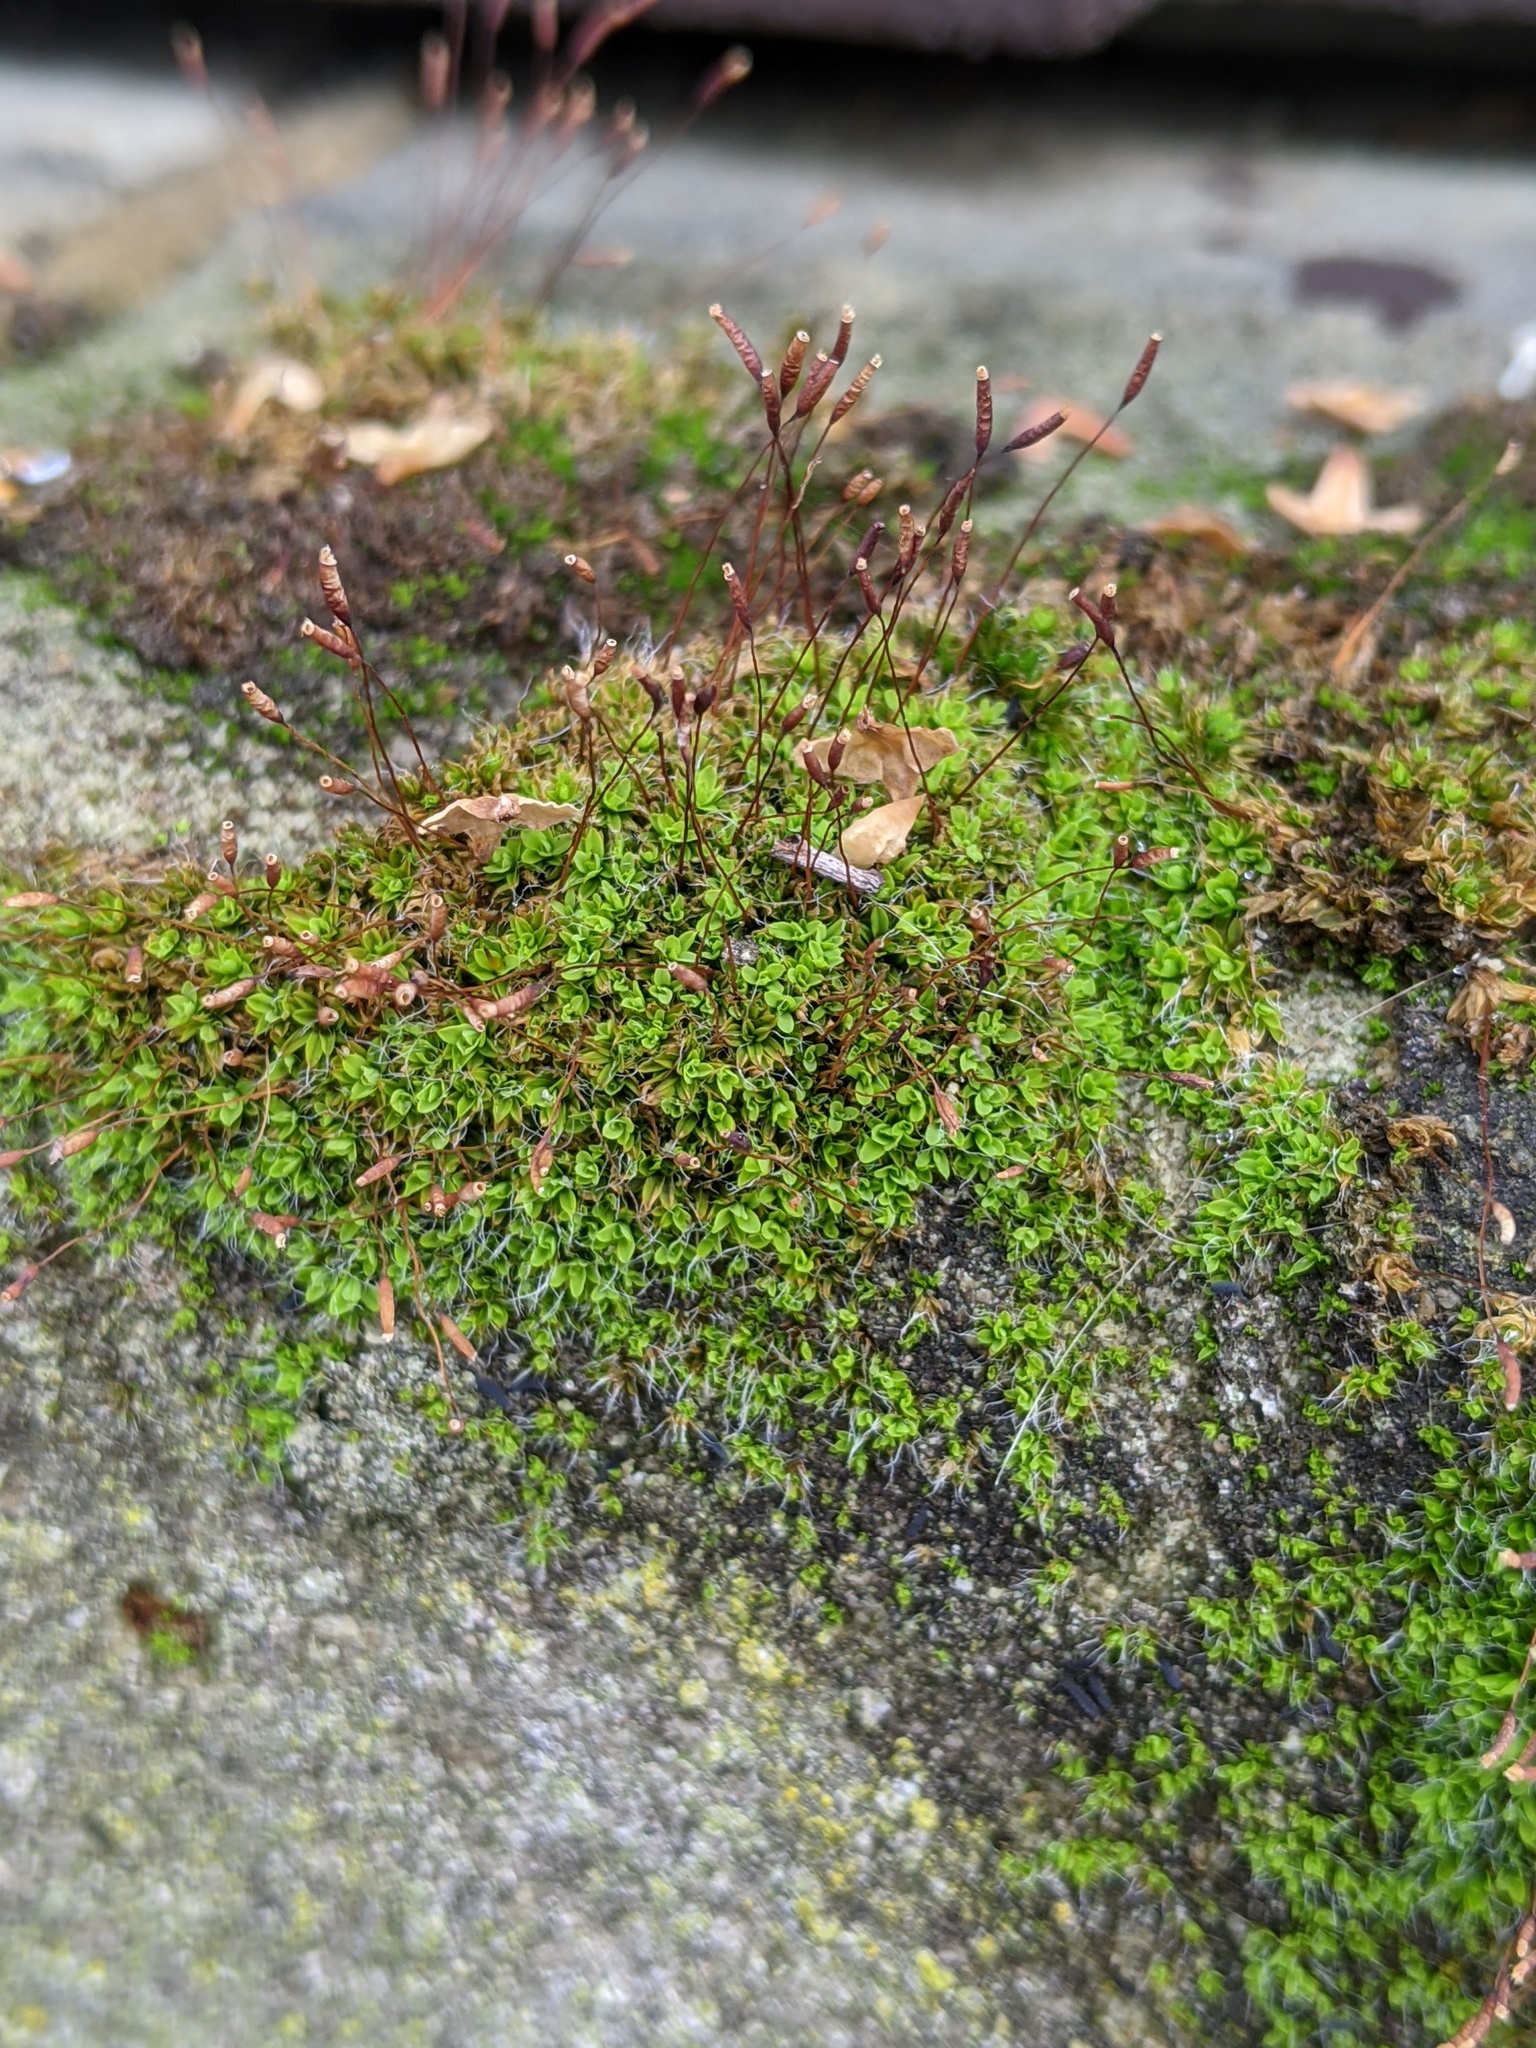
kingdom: Plantae
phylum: Bryophyta
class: Bryopsida
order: Pottiales
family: Pottiaceae
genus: Tortula
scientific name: Tortula muralis
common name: Wall screw-moss
